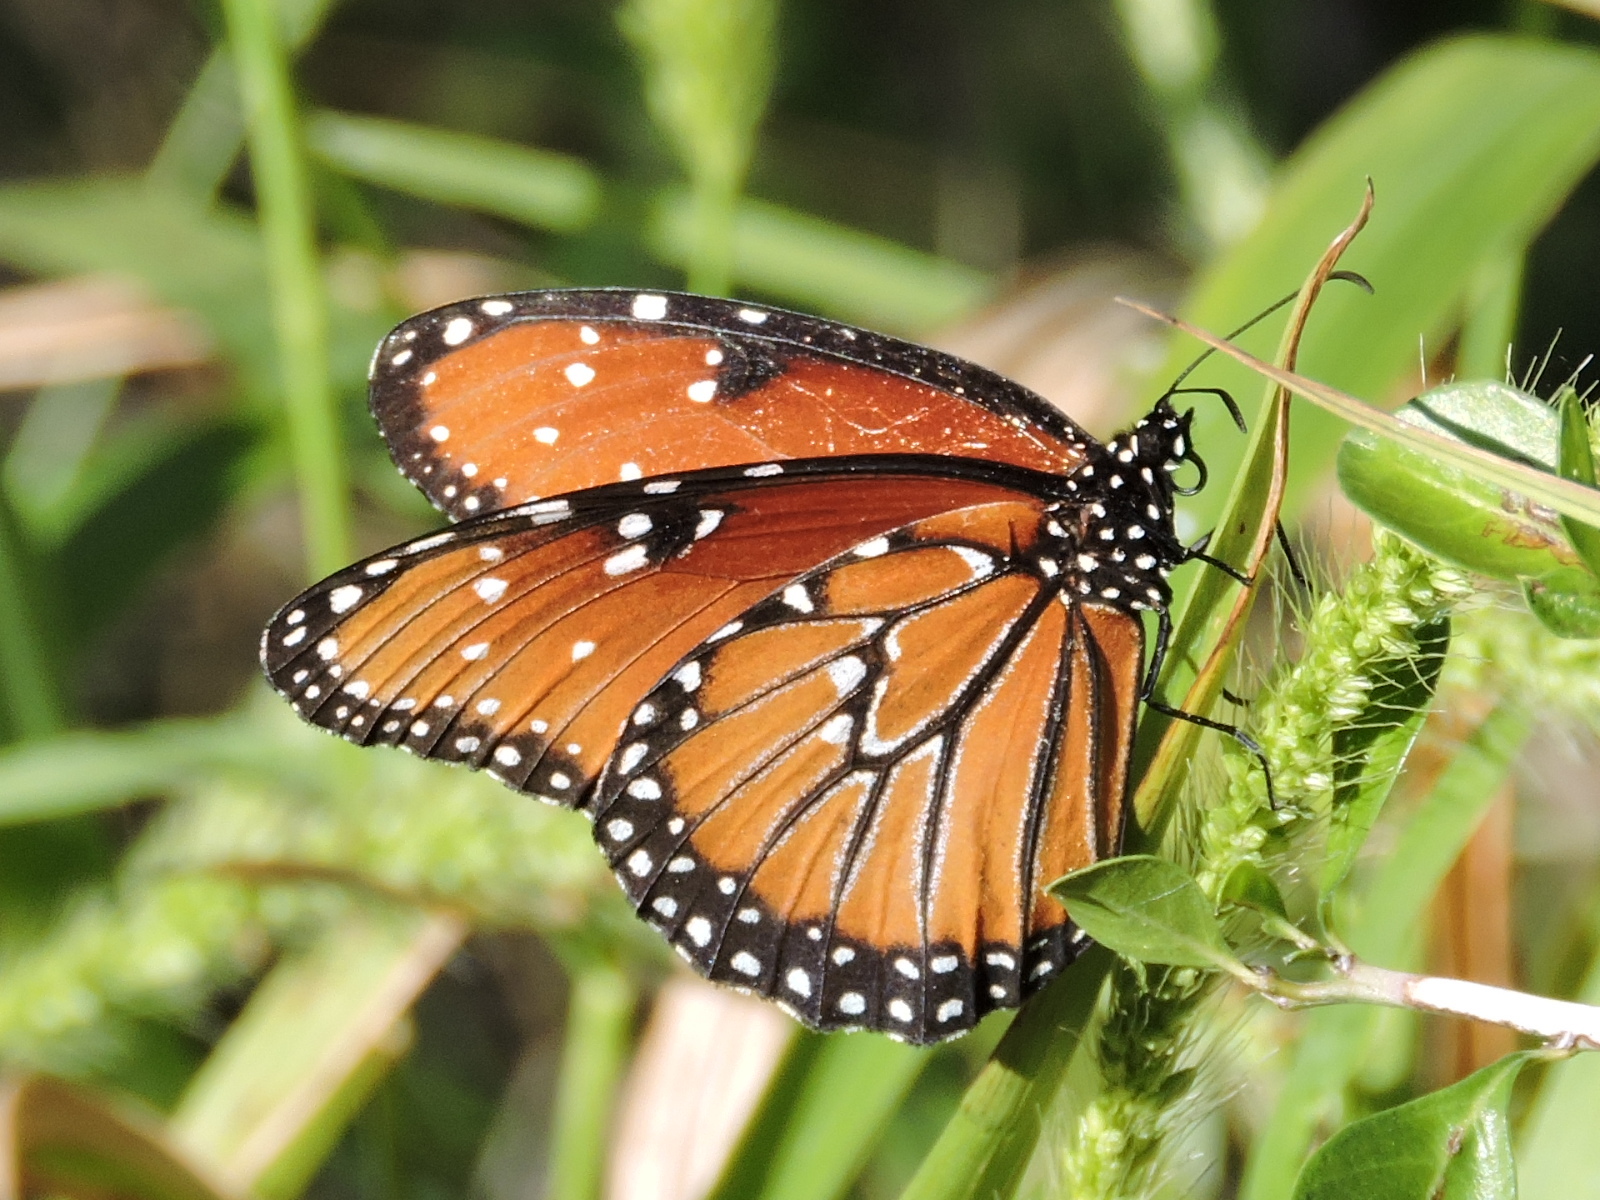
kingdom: Animalia
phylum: Arthropoda
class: Insecta
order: Lepidoptera
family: Nymphalidae
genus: Danaus
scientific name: Danaus gilippus
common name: Queen
